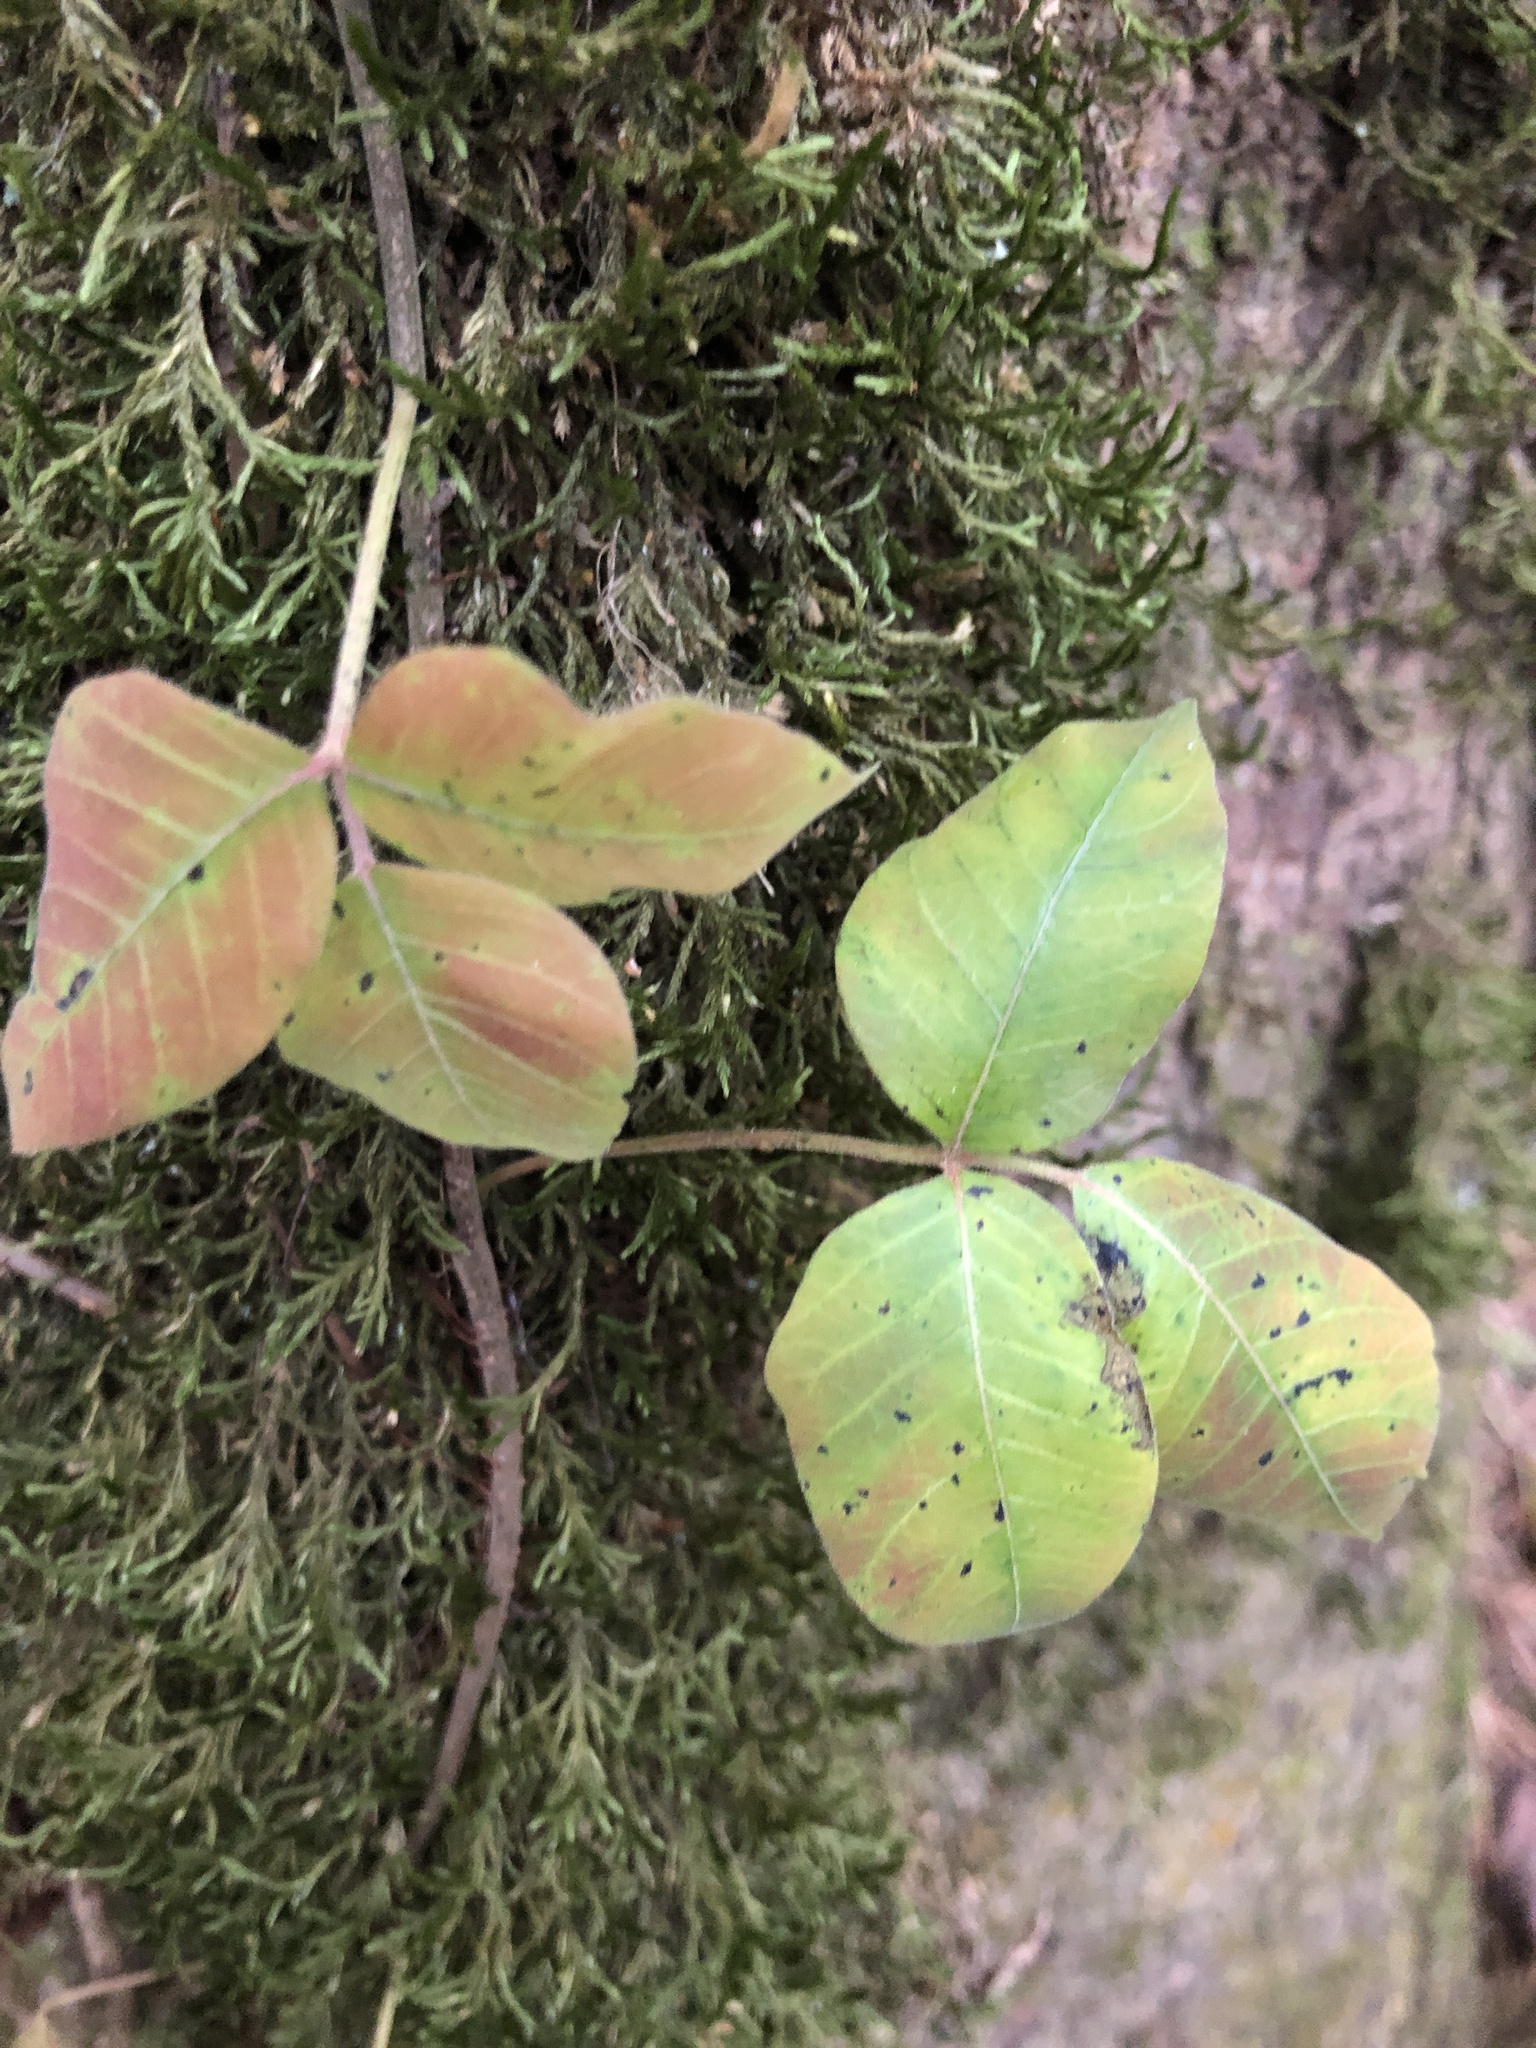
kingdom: Plantae
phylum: Tracheophyta
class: Magnoliopsida
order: Sapindales
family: Anacardiaceae
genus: Toxicodendron
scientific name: Toxicodendron radicans
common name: Poison ivy
